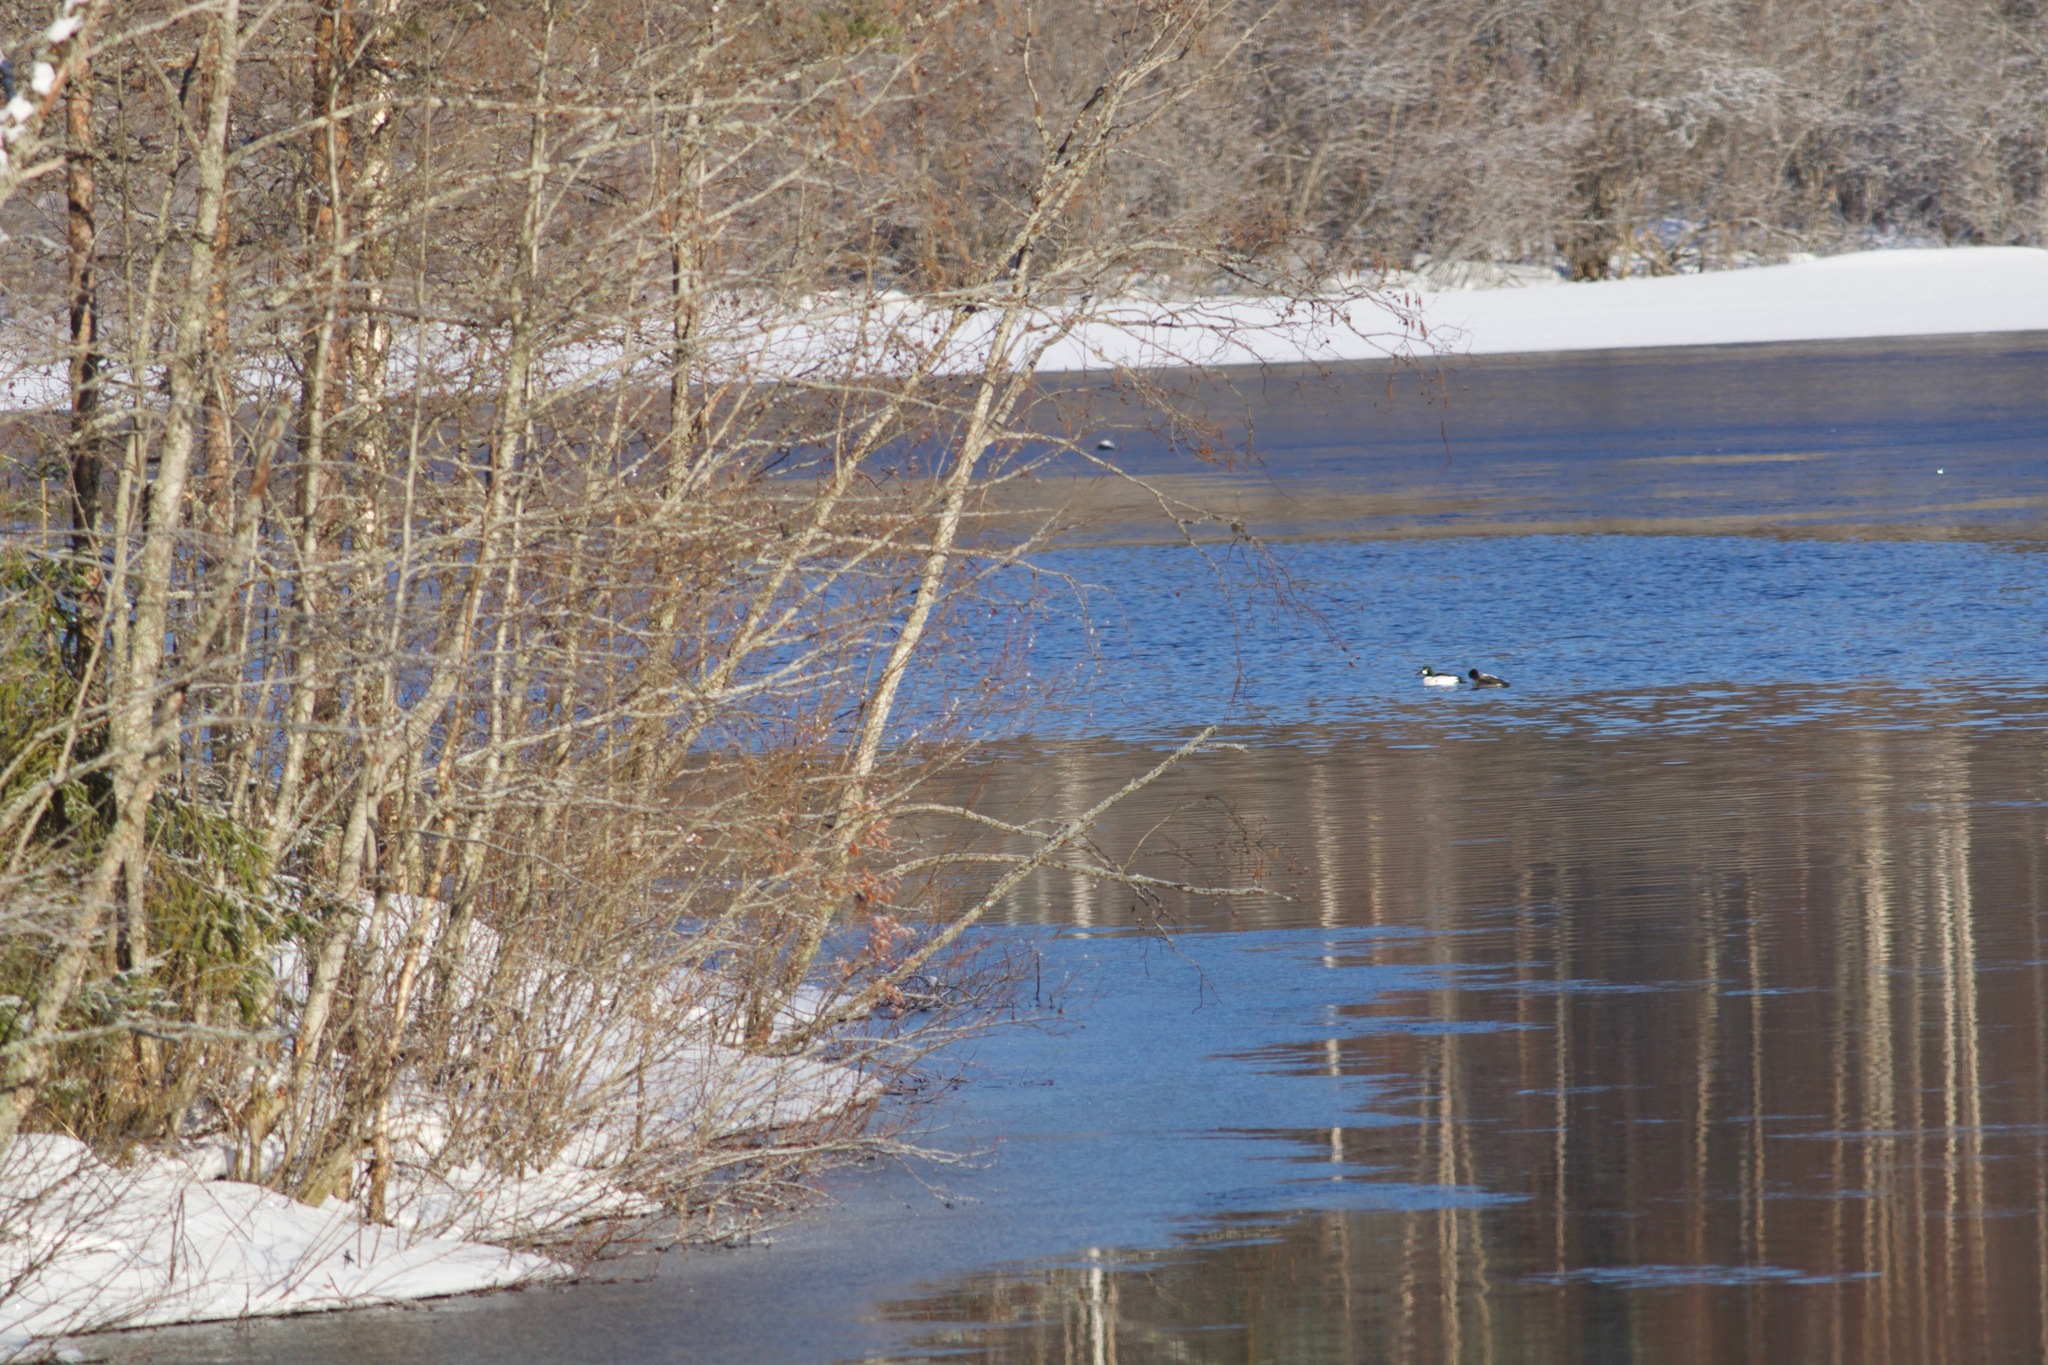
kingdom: Animalia
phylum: Chordata
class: Aves
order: Anseriformes
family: Anatidae
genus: Bucephala
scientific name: Bucephala clangula
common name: Common goldeneye
